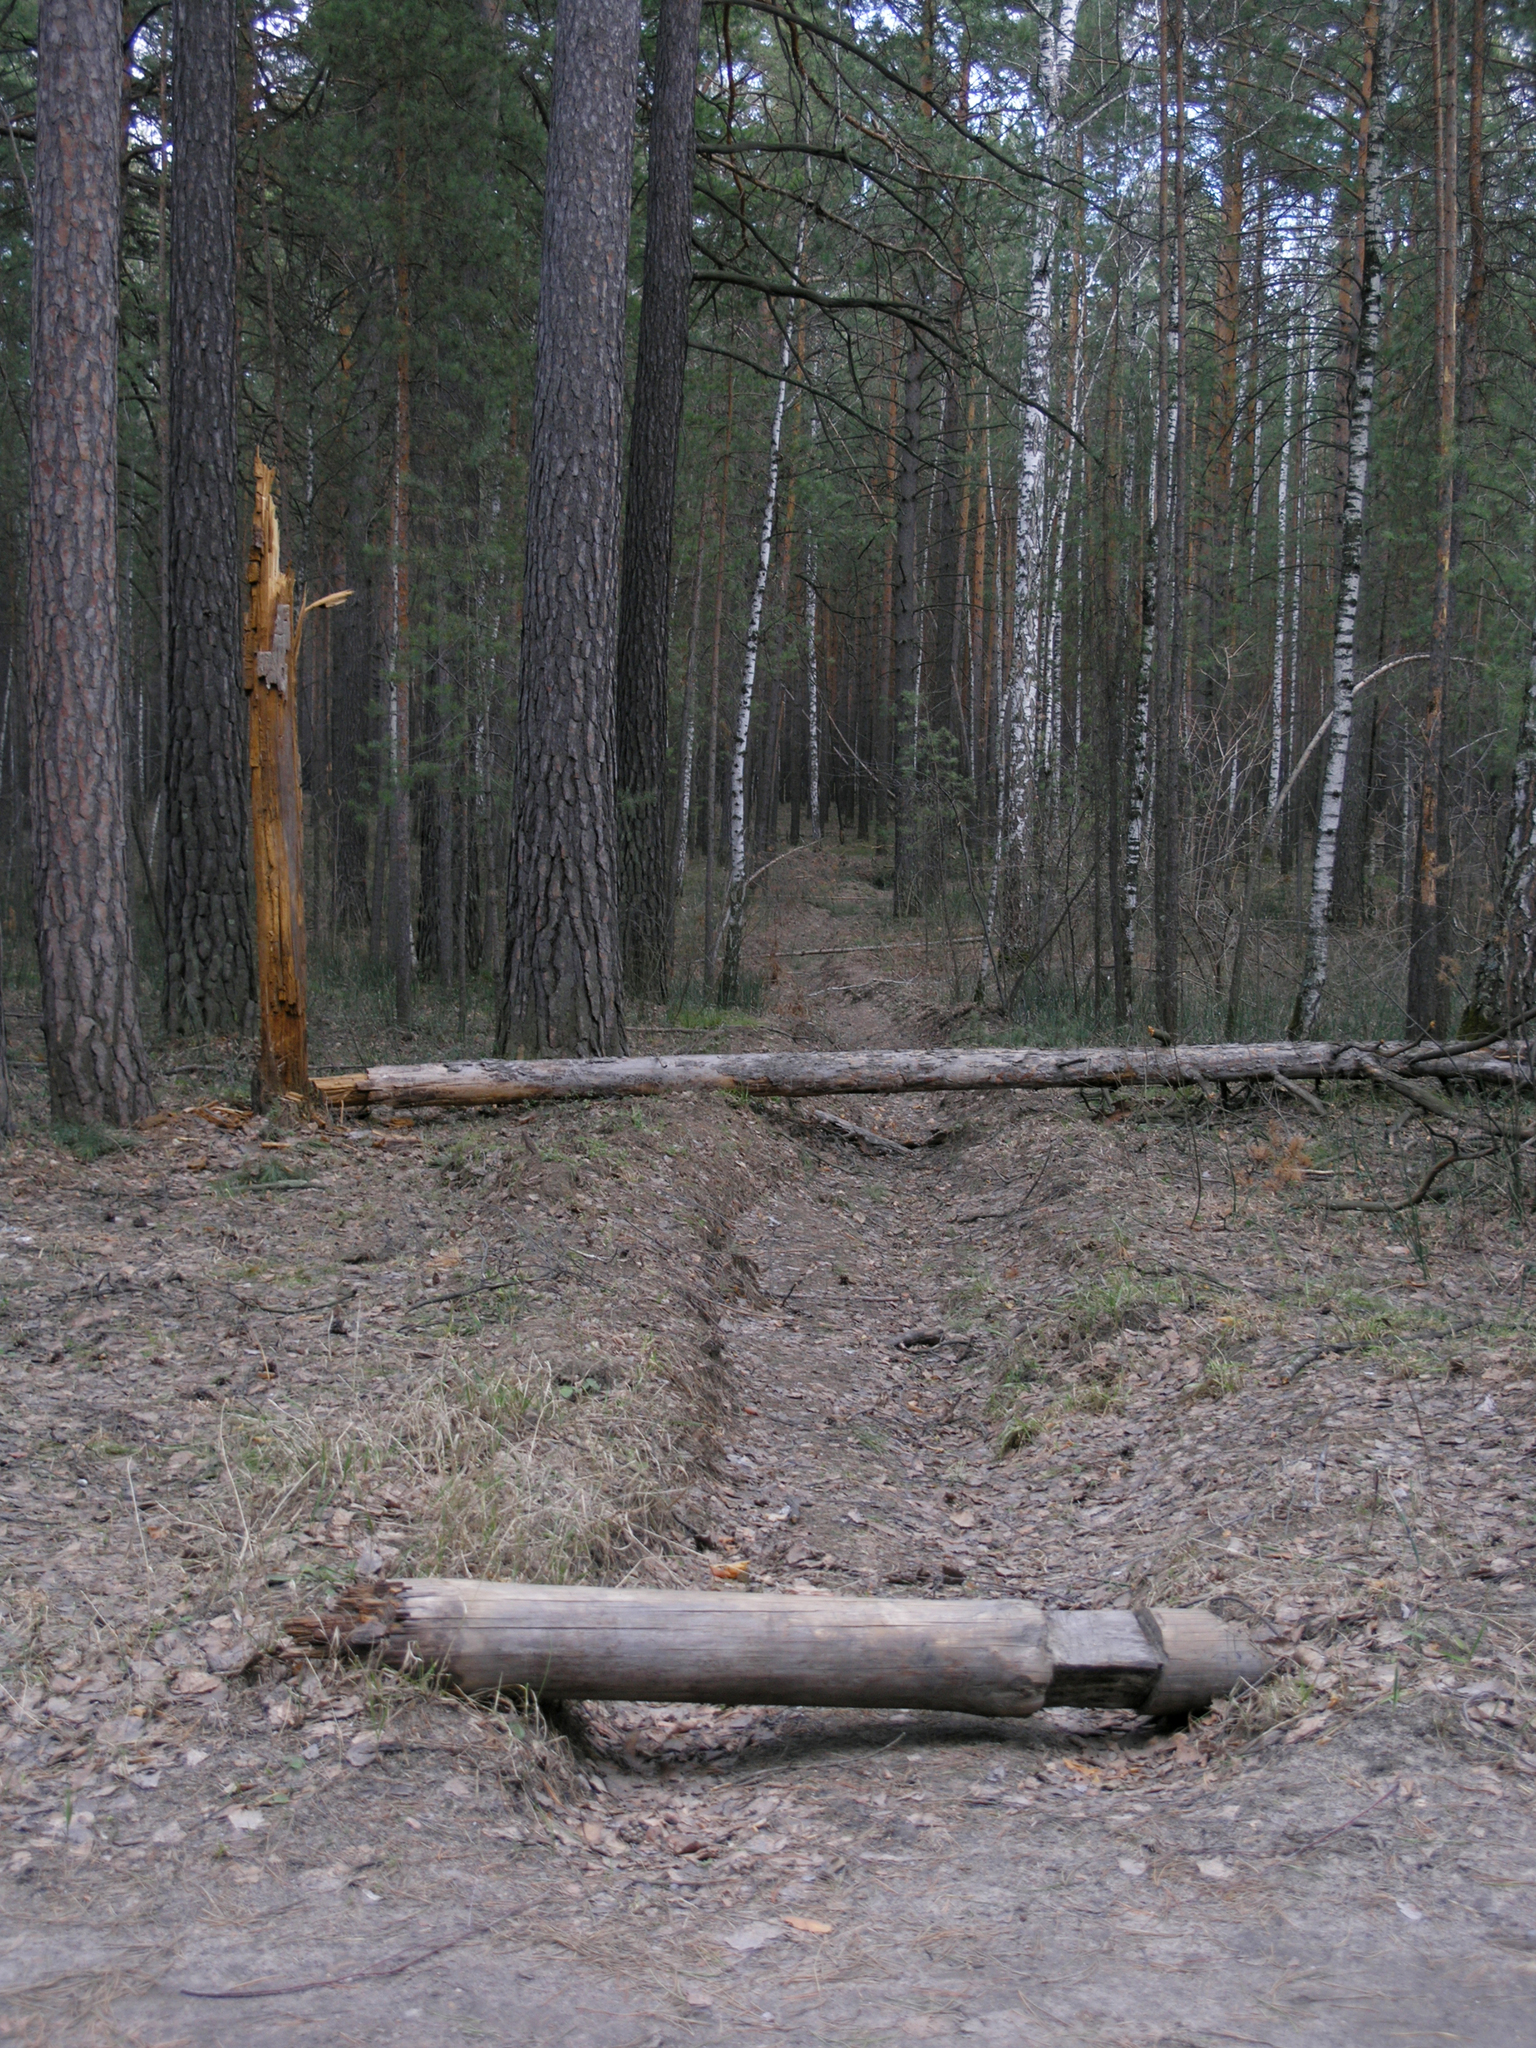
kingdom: Plantae
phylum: Tracheophyta
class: Pinopsida
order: Pinales
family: Pinaceae
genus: Pinus
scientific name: Pinus sylvestris
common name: Scots pine
